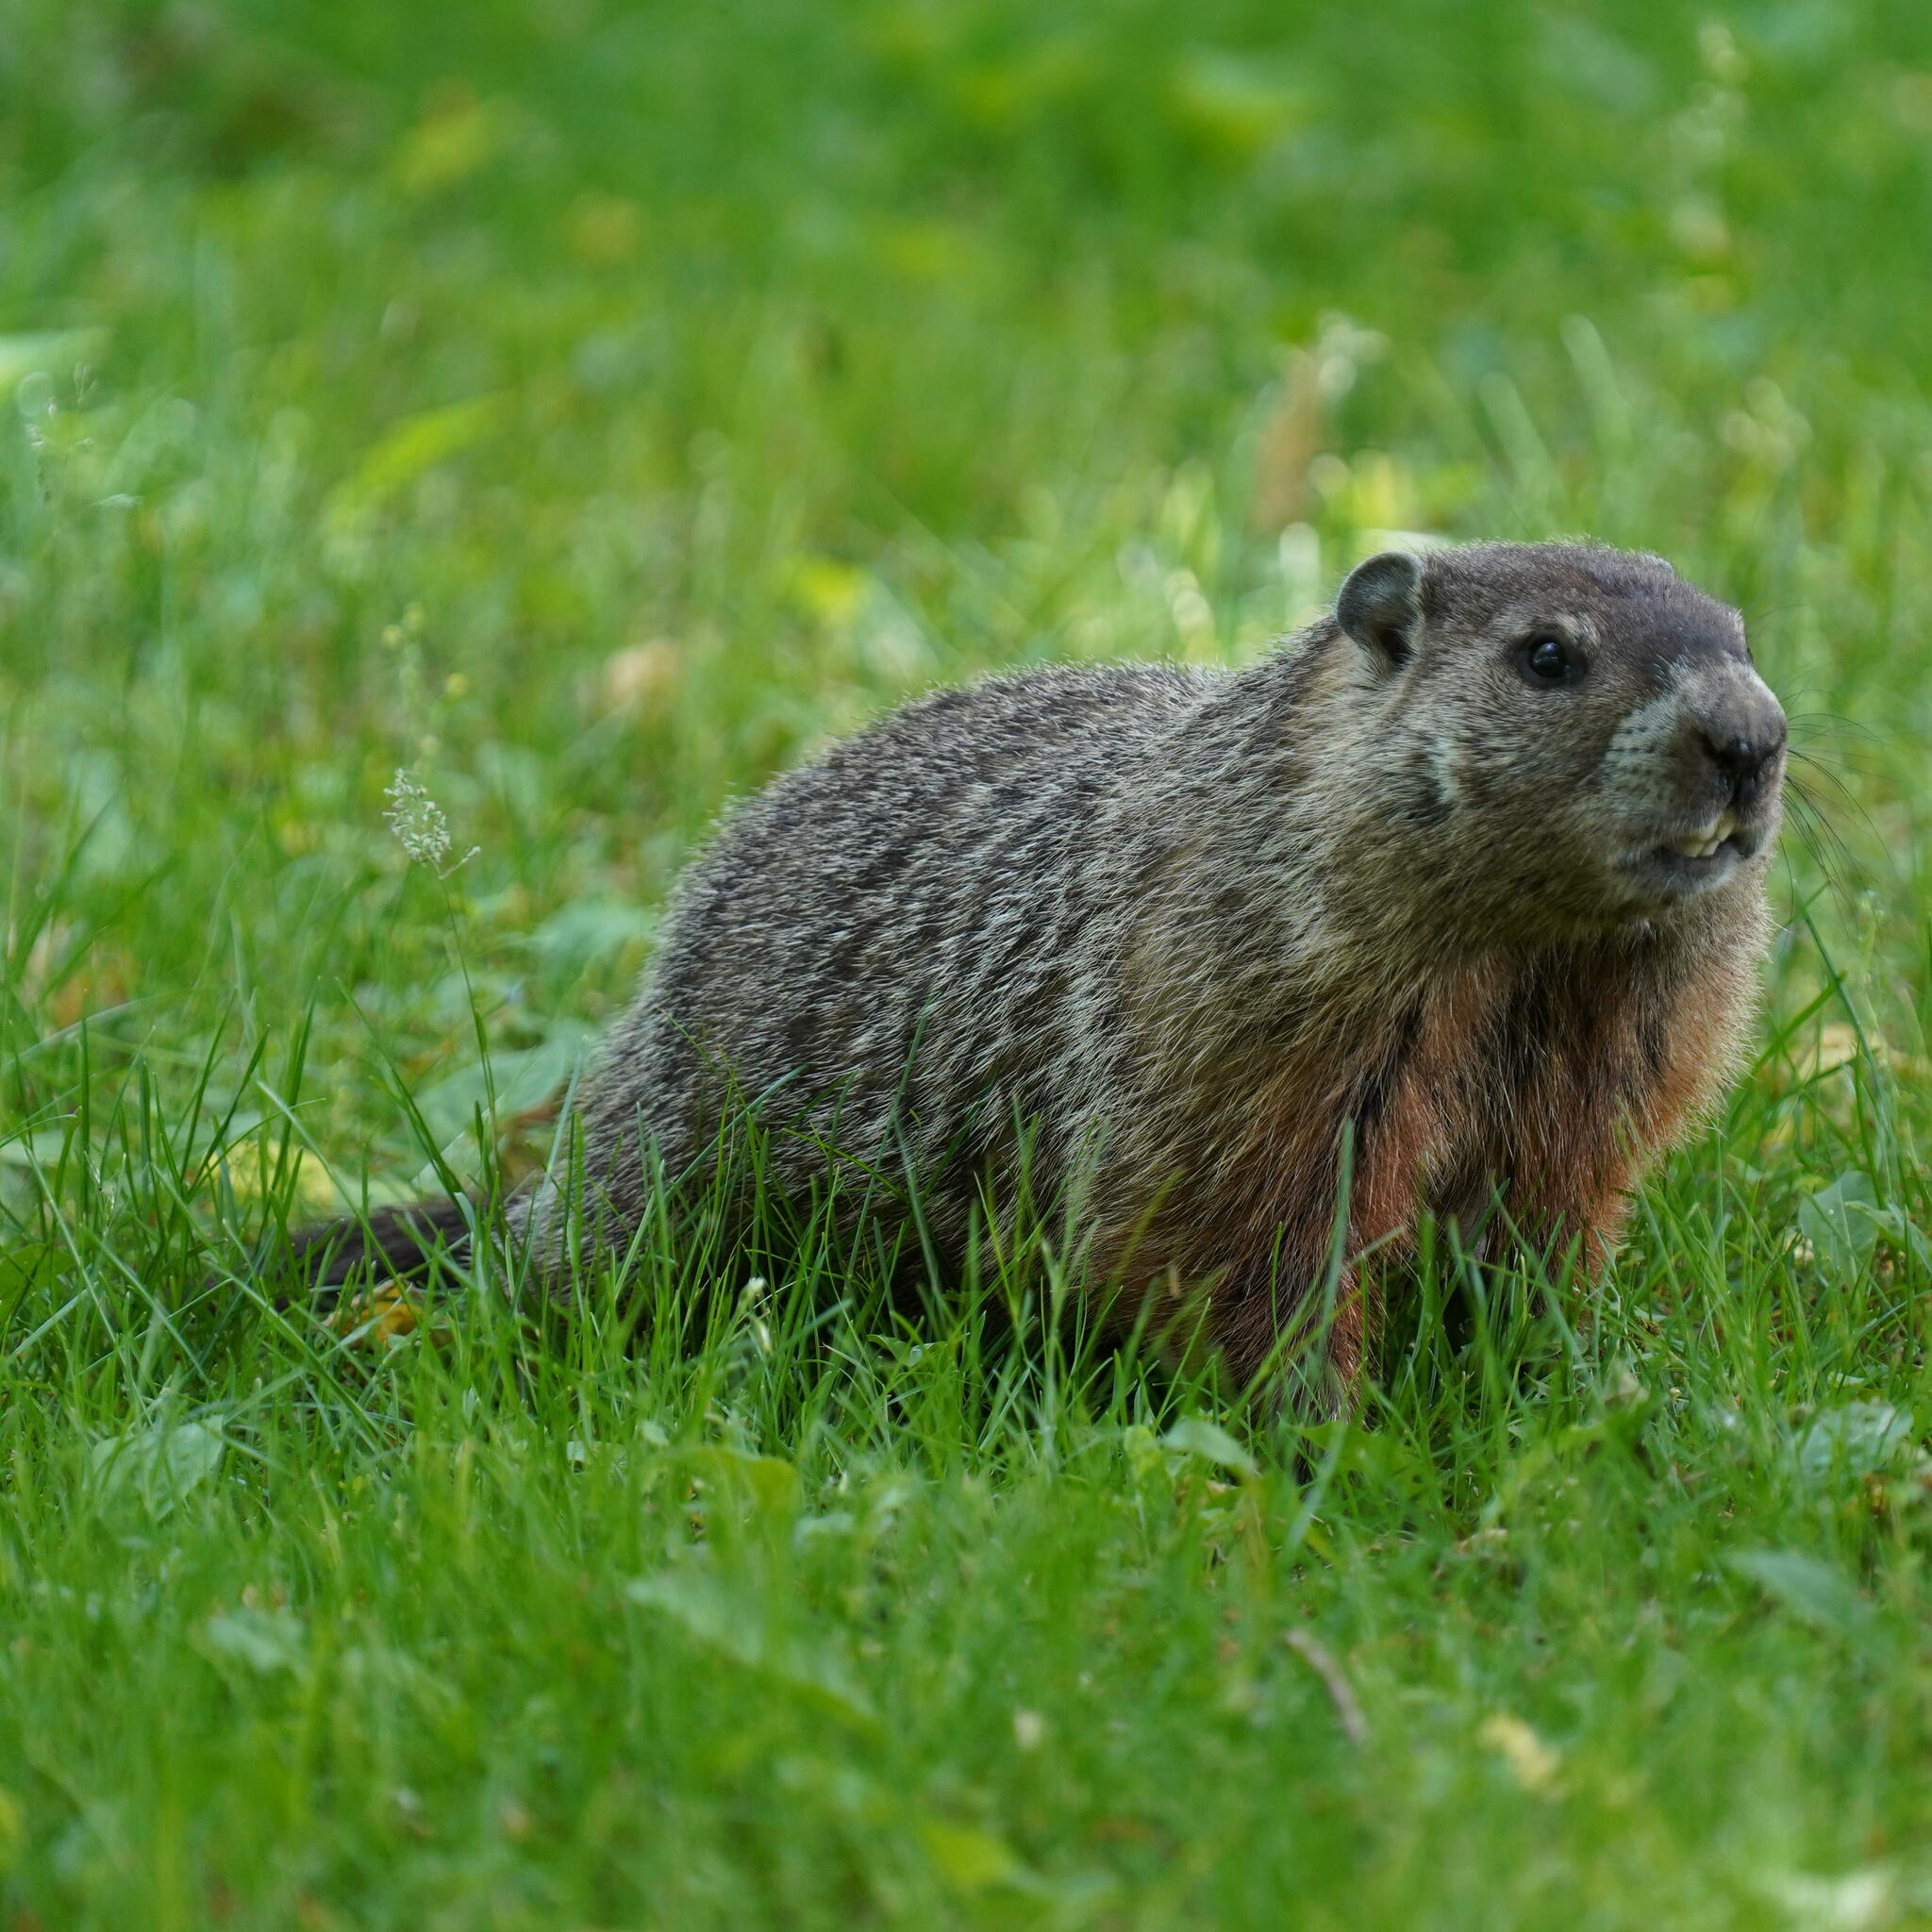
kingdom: Animalia
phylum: Chordata
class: Mammalia
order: Rodentia
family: Sciuridae
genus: Marmota
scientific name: Marmota monax
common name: Groundhog
